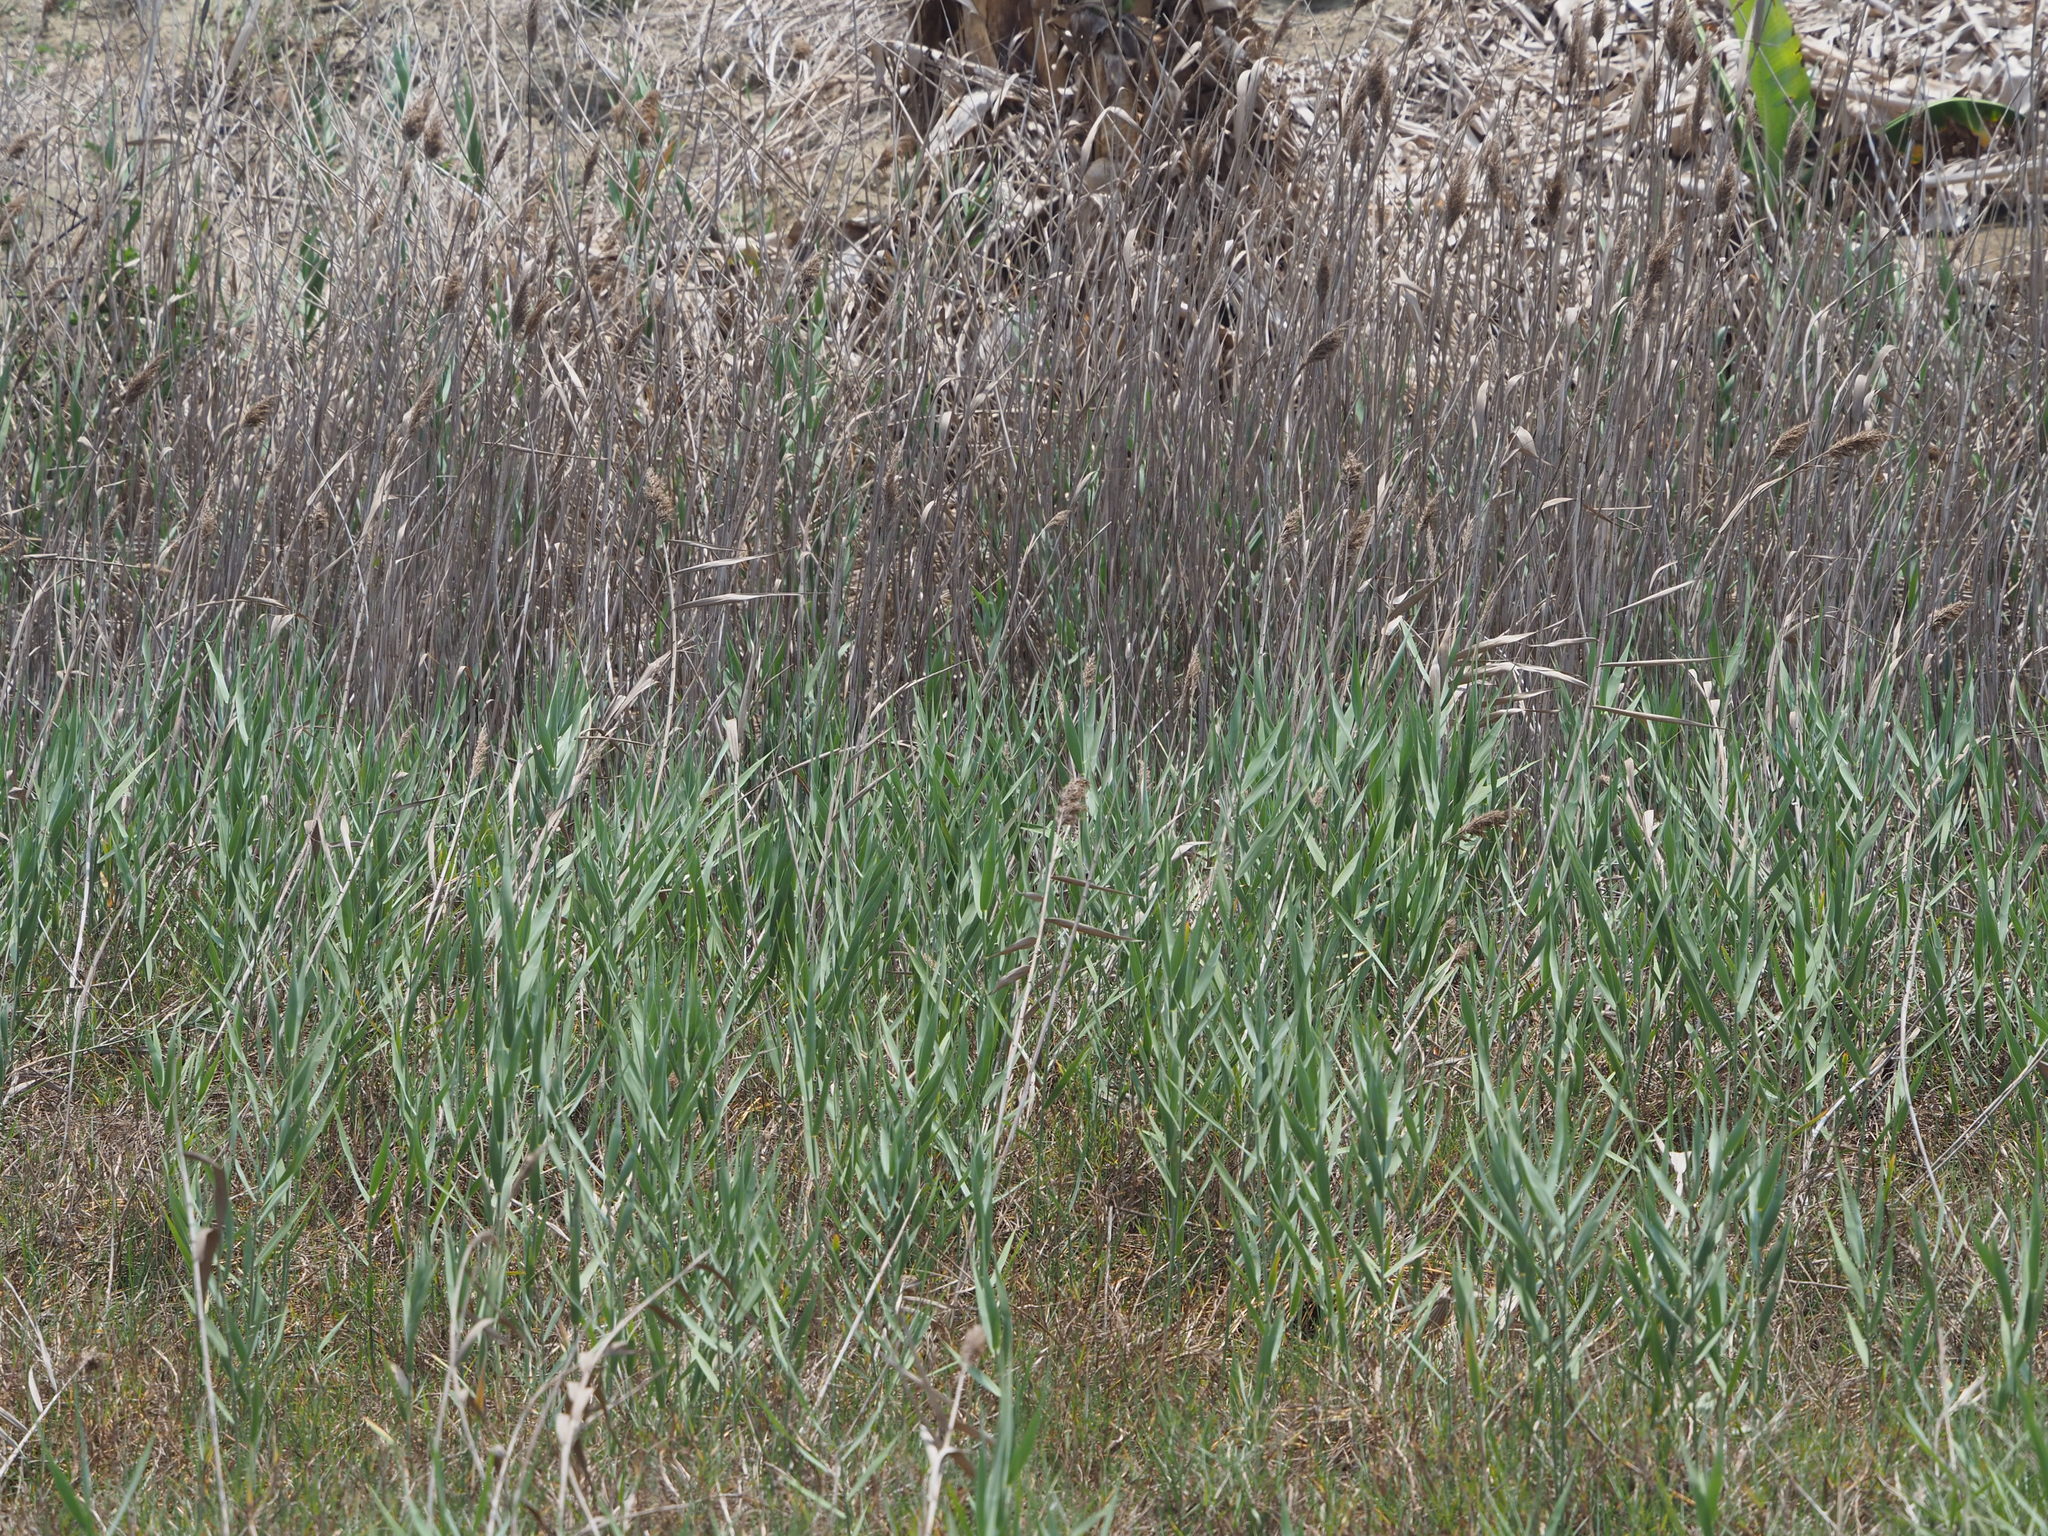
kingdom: Plantae
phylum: Tracheophyta
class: Liliopsida
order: Poales
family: Poaceae
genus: Phragmites
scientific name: Phragmites australis
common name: Common reed
